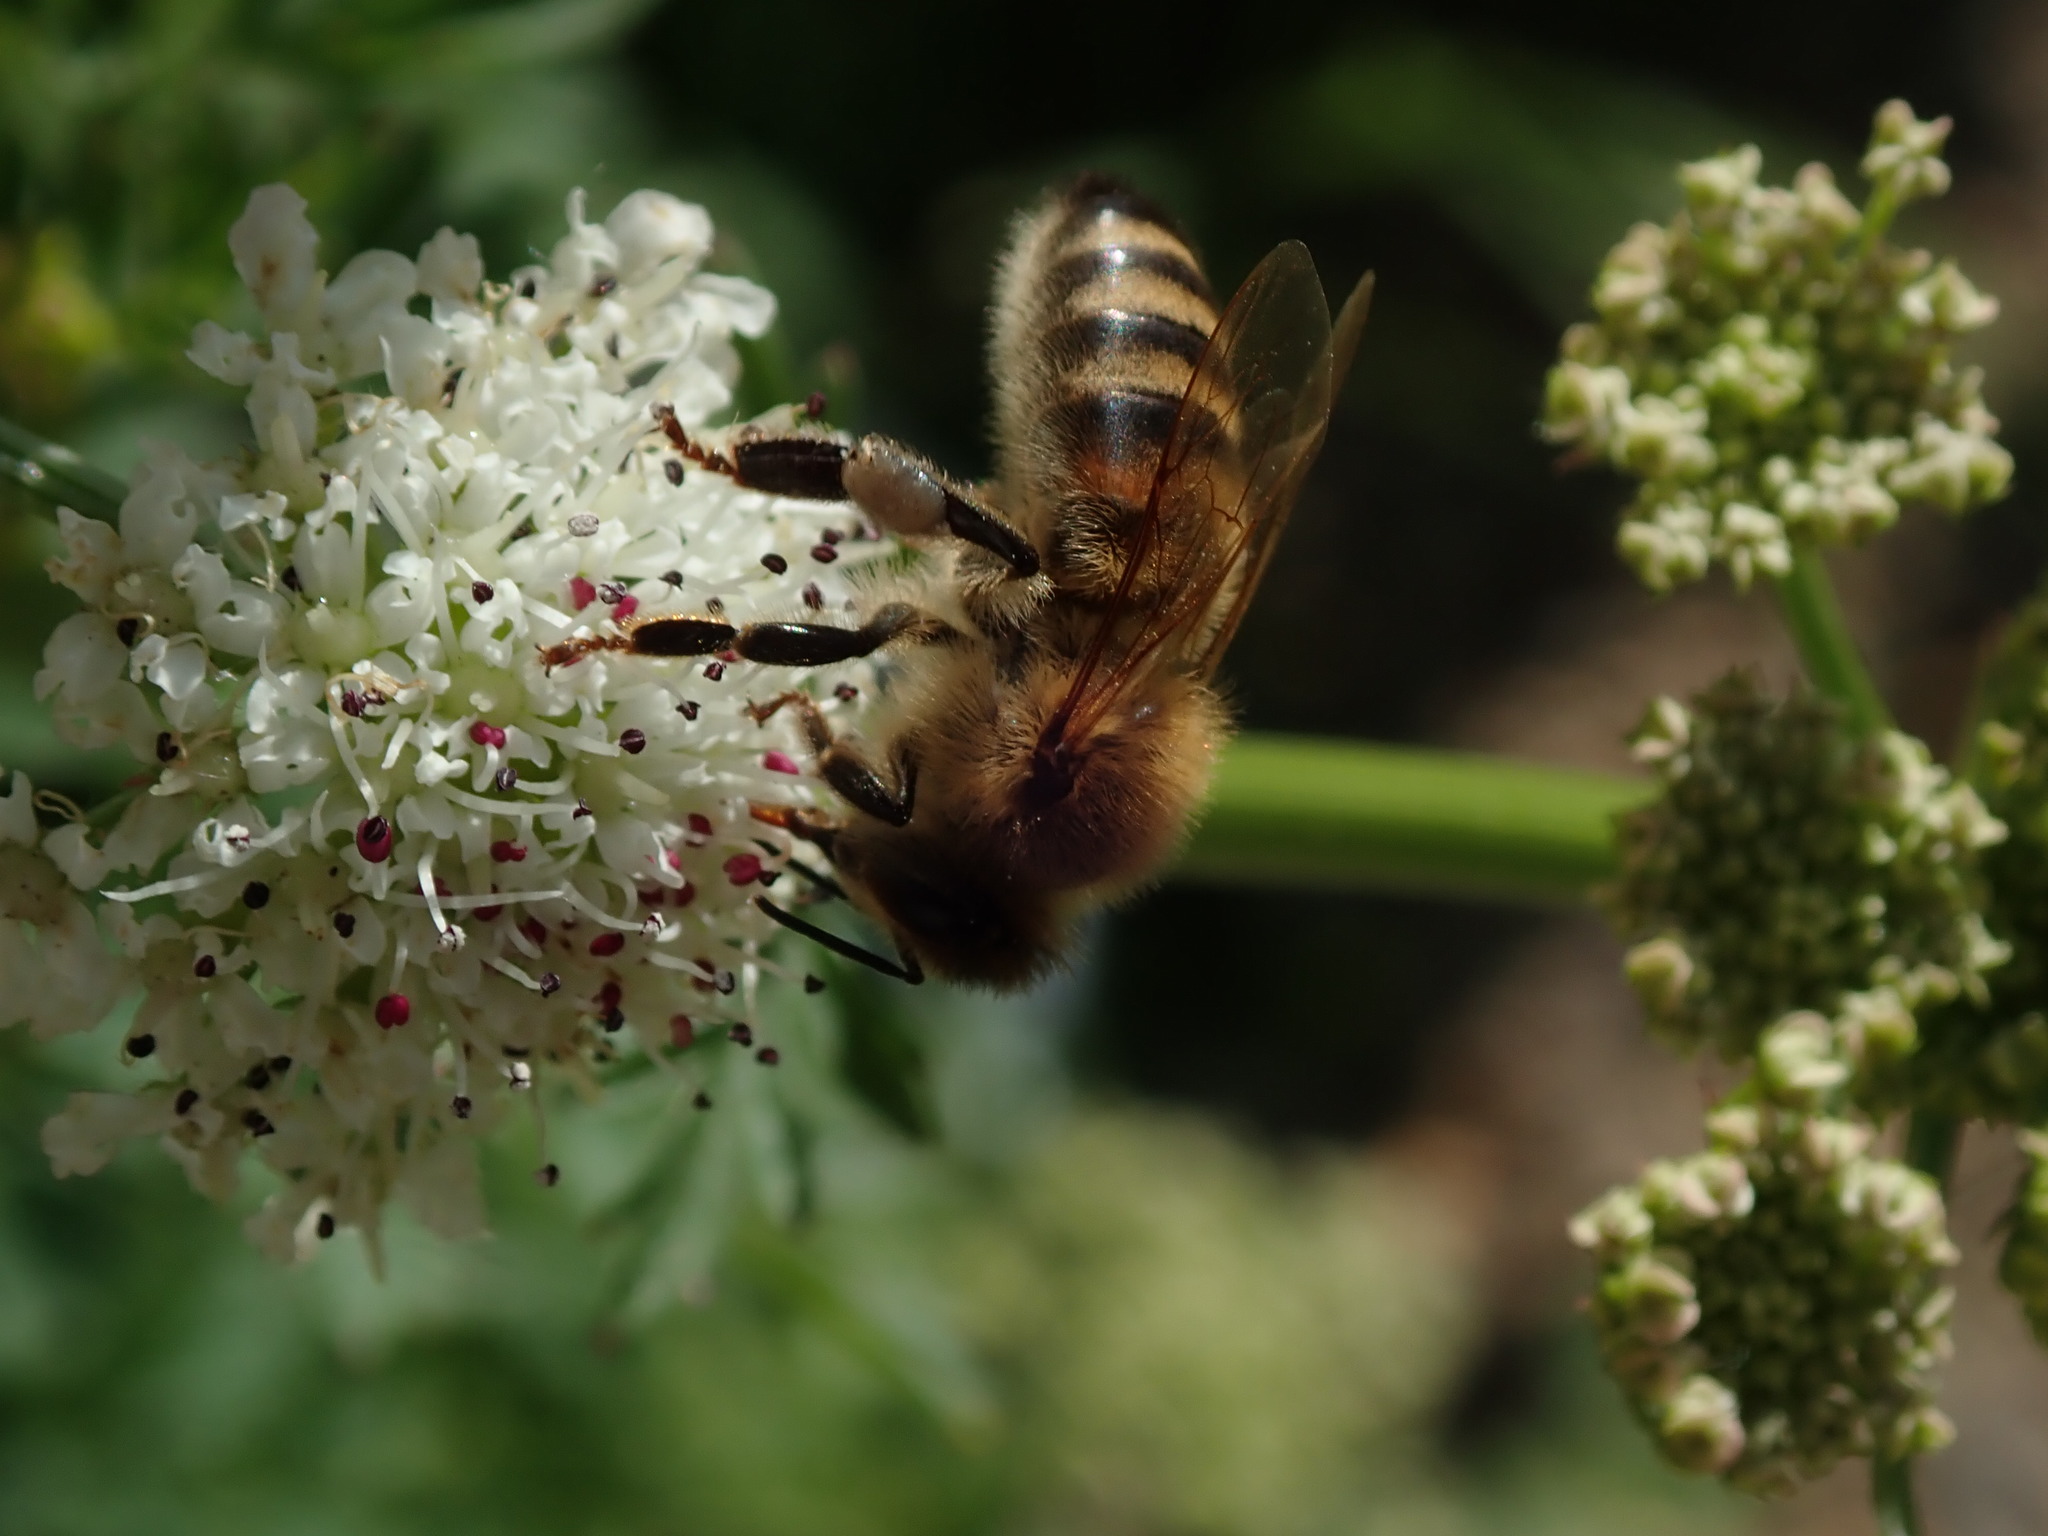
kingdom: Animalia
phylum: Arthropoda
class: Insecta
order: Hymenoptera
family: Apidae
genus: Apis
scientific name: Apis mellifera
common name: Honey bee
